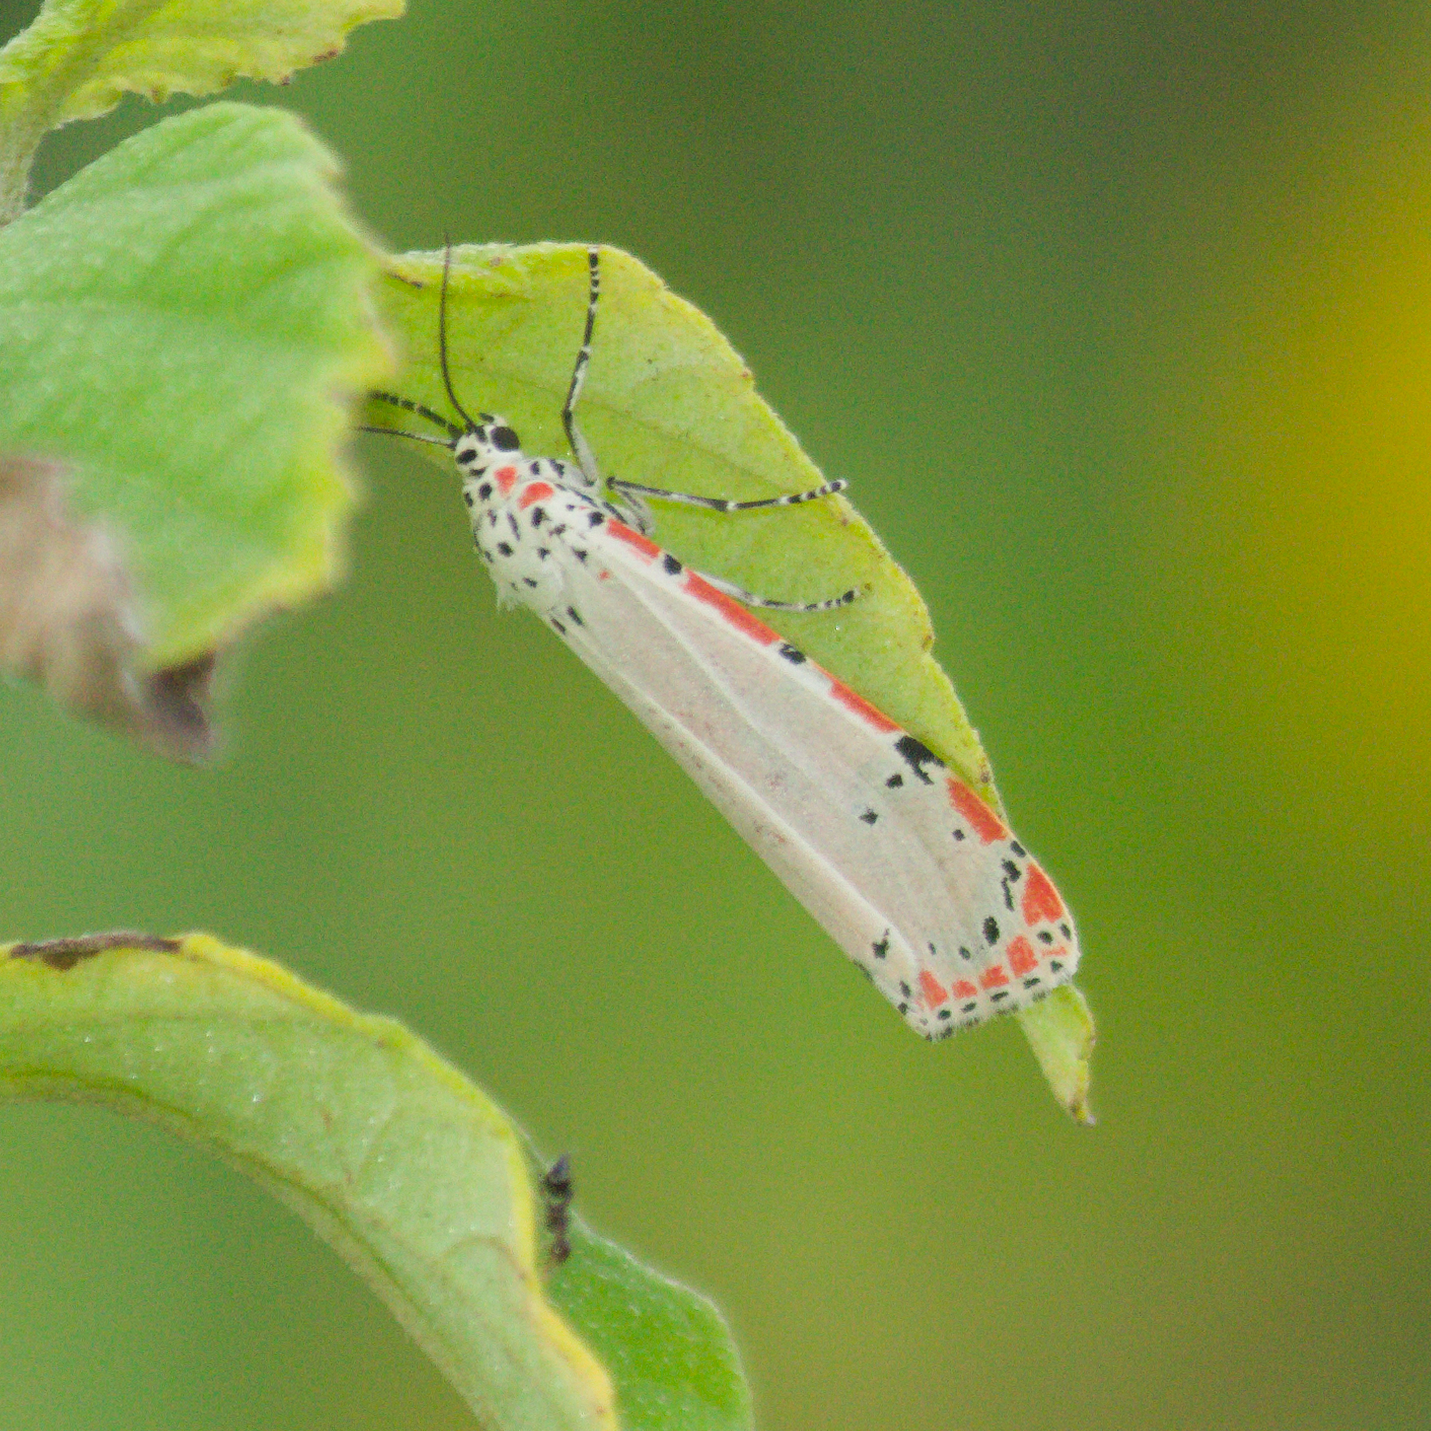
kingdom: Animalia
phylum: Arthropoda
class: Insecta
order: Lepidoptera
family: Erebidae
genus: Utetheisa
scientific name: Utetheisa ornatrix
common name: Beautiful utetheisa
